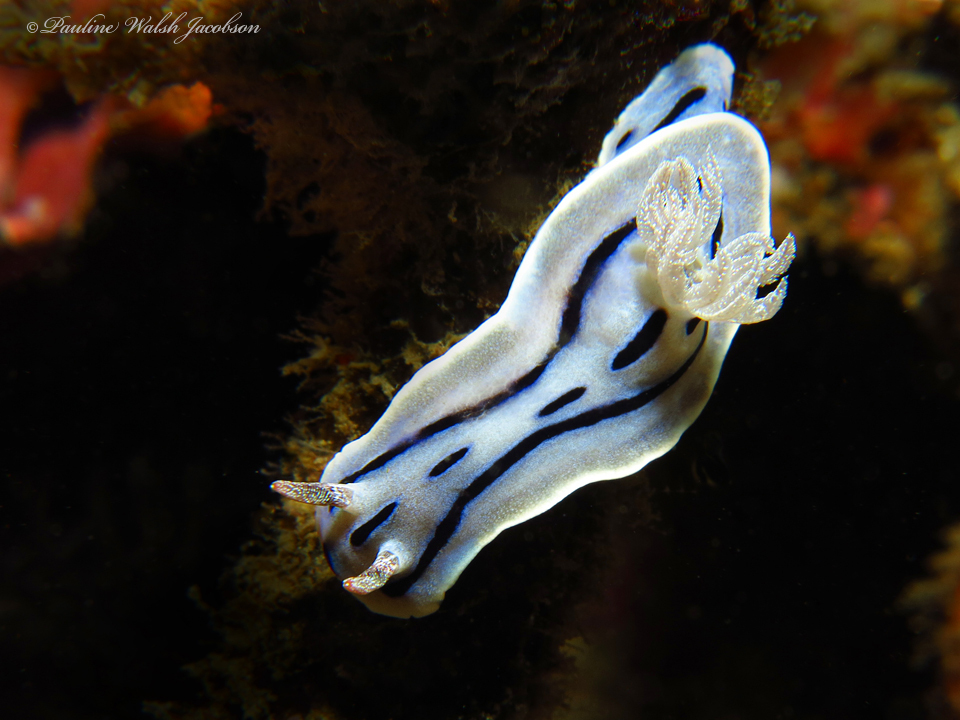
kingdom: Animalia
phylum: Mollusca
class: Gastropoda
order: Nudibranchia
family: Chromodorididae
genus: Chromodoris
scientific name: Chromodoris willani
